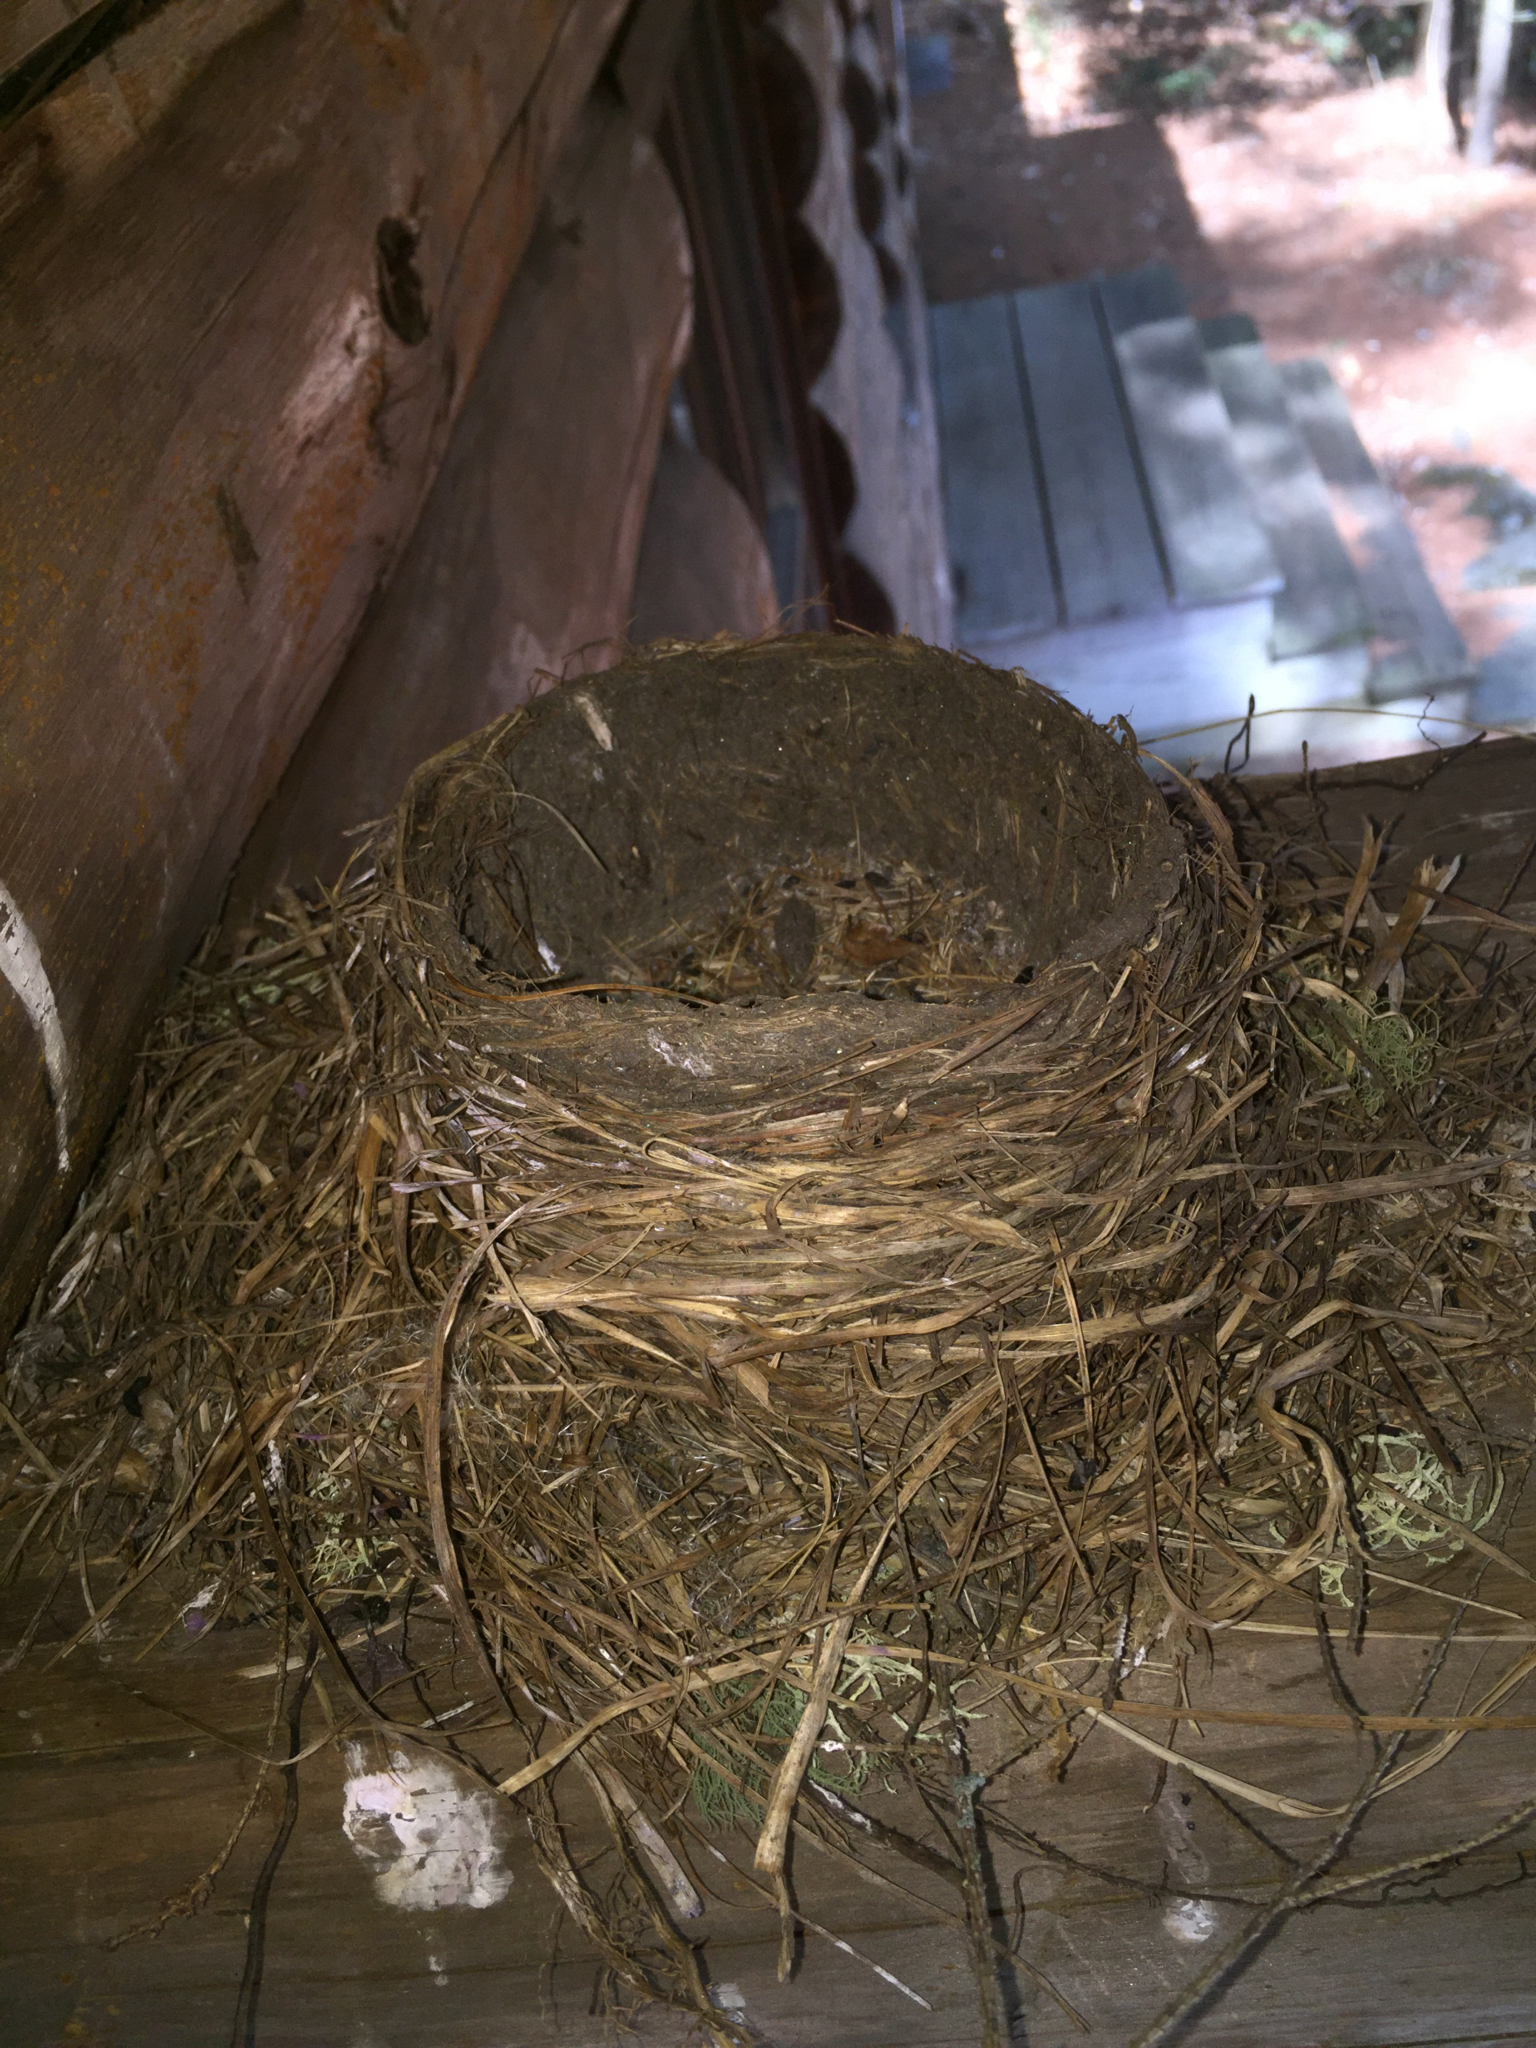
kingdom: Animalia
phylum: Chordata
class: Aves
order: Passeriformes
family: Turdidae
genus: Turdus
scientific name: Turdus migratorius
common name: American robin
